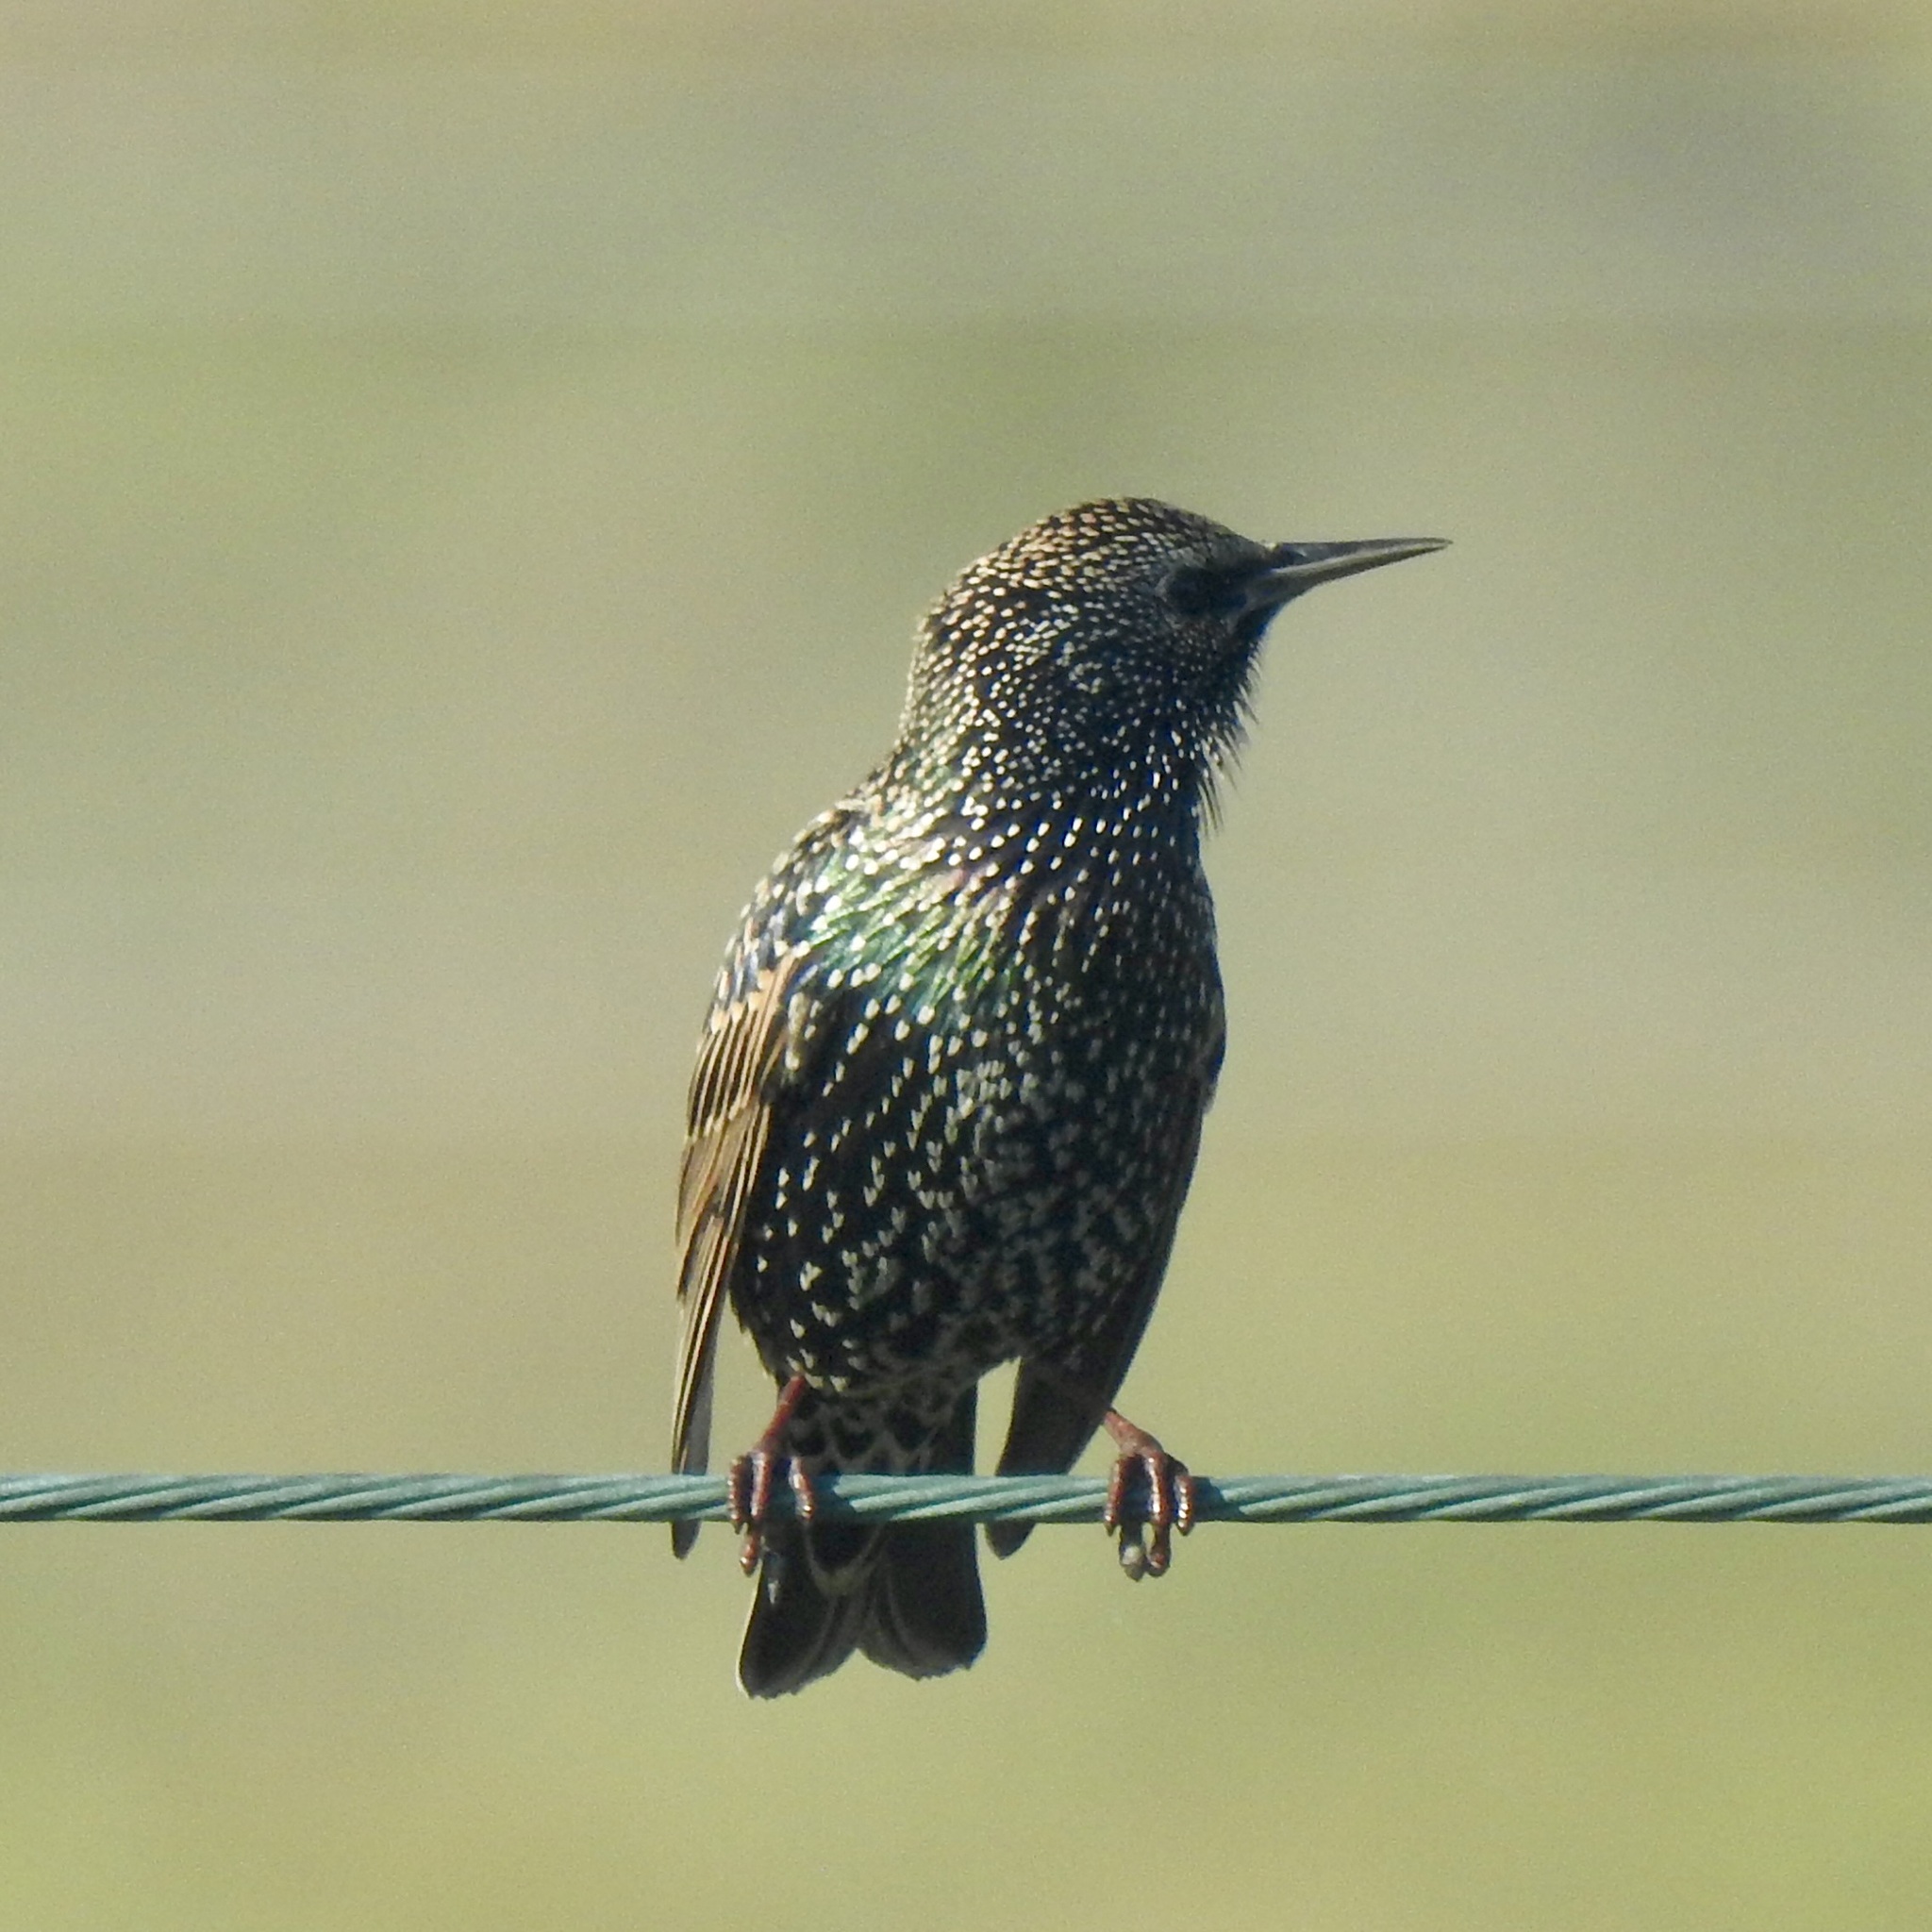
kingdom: Animalia
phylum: Chordata
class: Aves
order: Passeriformes
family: Sturnidae
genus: Sturnus
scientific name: Sturnus vulgaris
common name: Common starling
